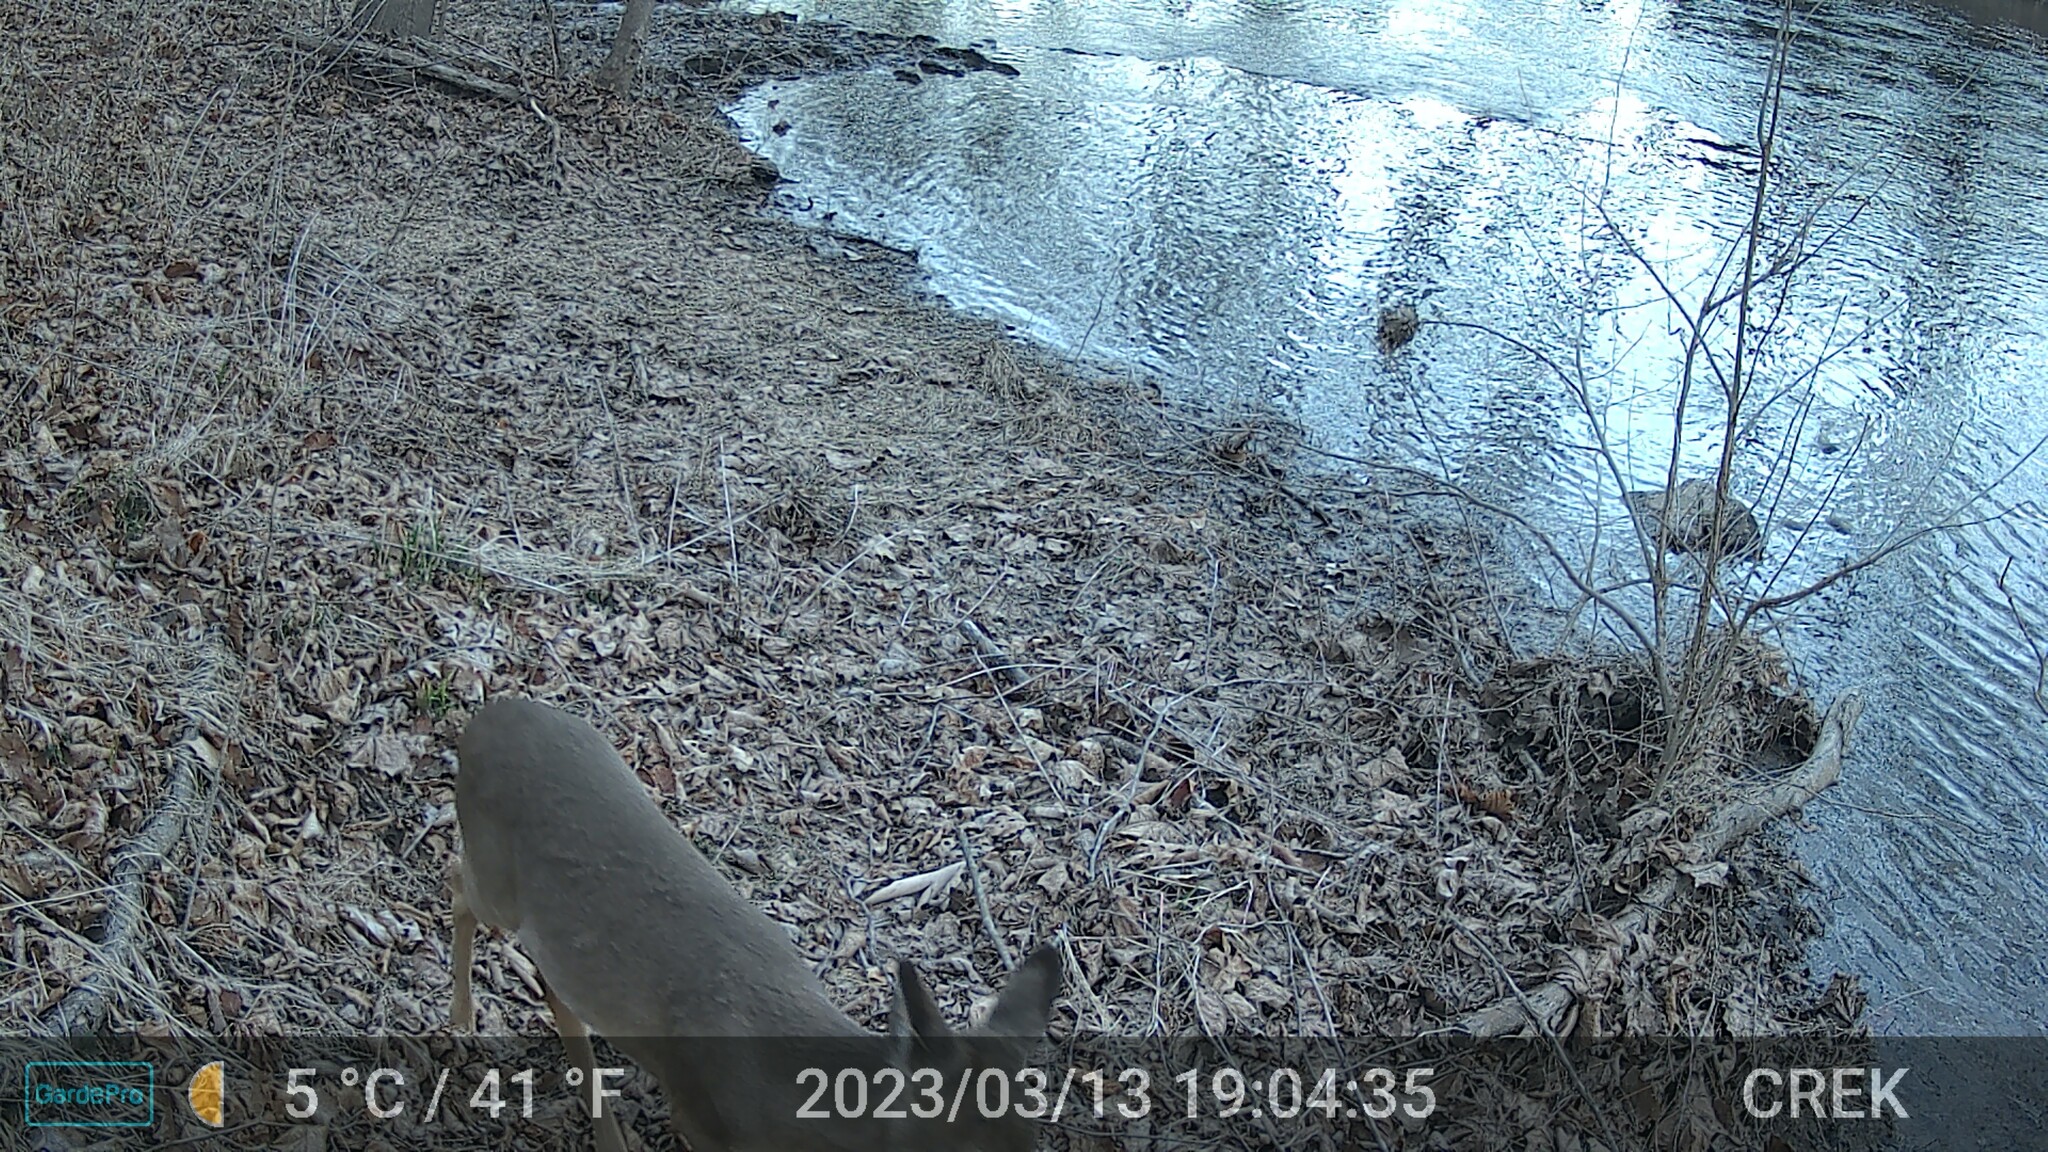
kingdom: Animalia
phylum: Chordata
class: Mammalia
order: Artiodactyla
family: Cervidae
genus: Odocoileus
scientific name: Odocoileus virginianus
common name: White-tailed deer
